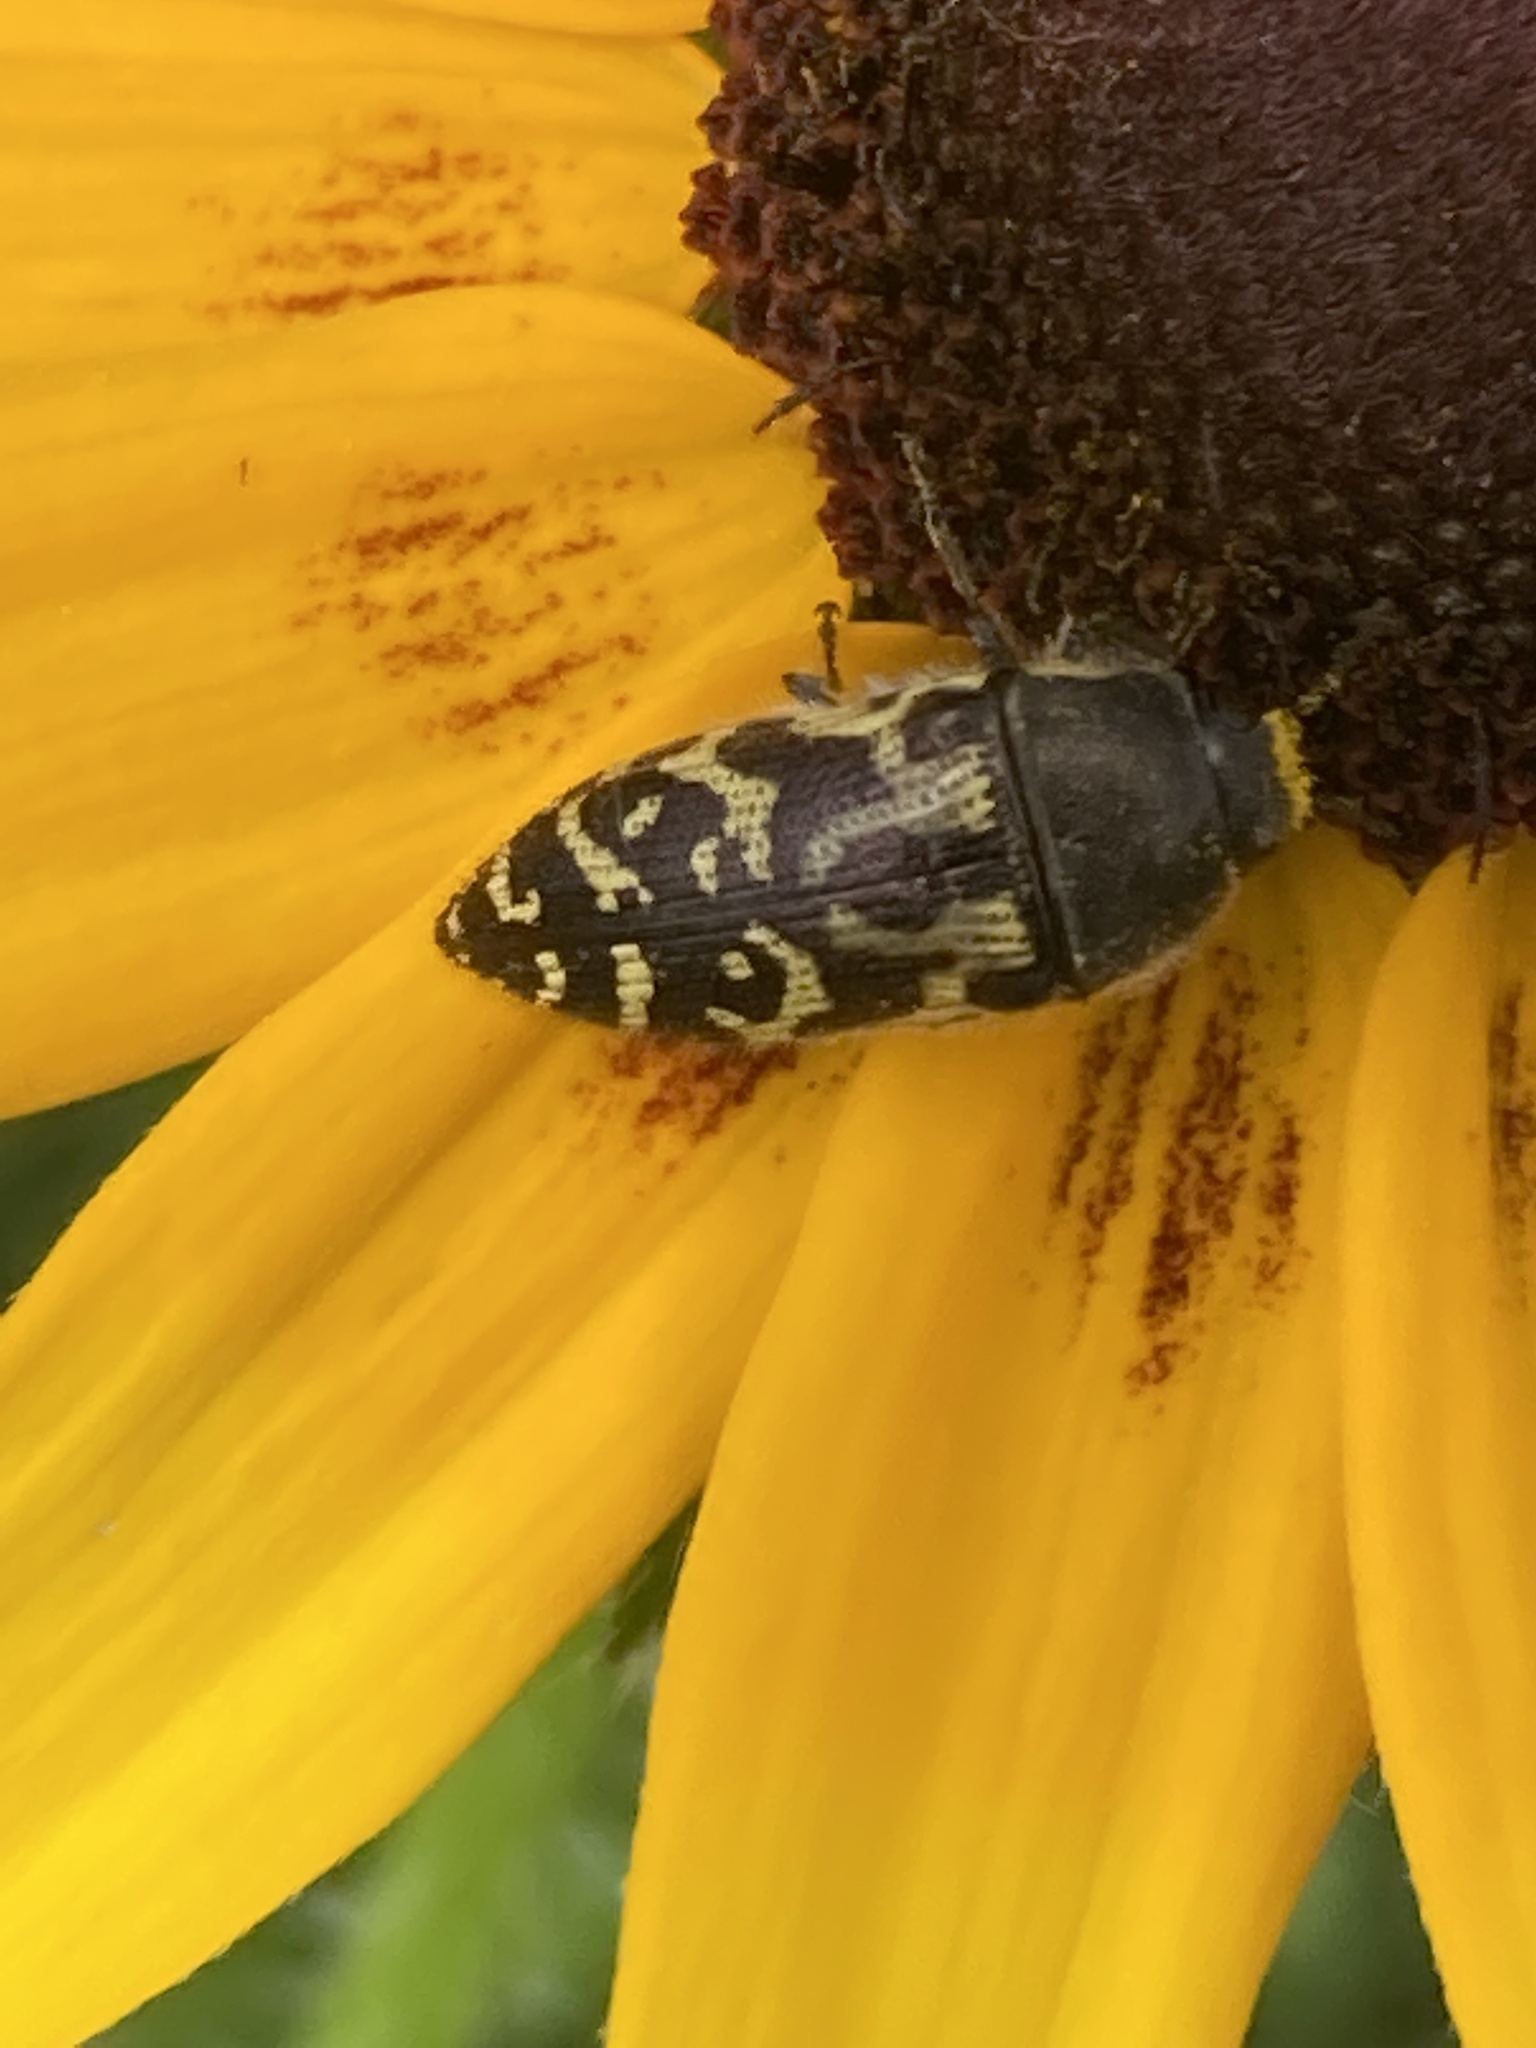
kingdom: Animalia
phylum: Arthropoda
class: Insecta
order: Coleoptera
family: Buprestidae
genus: Acmaeodera
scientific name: Acmaeodera mixta
